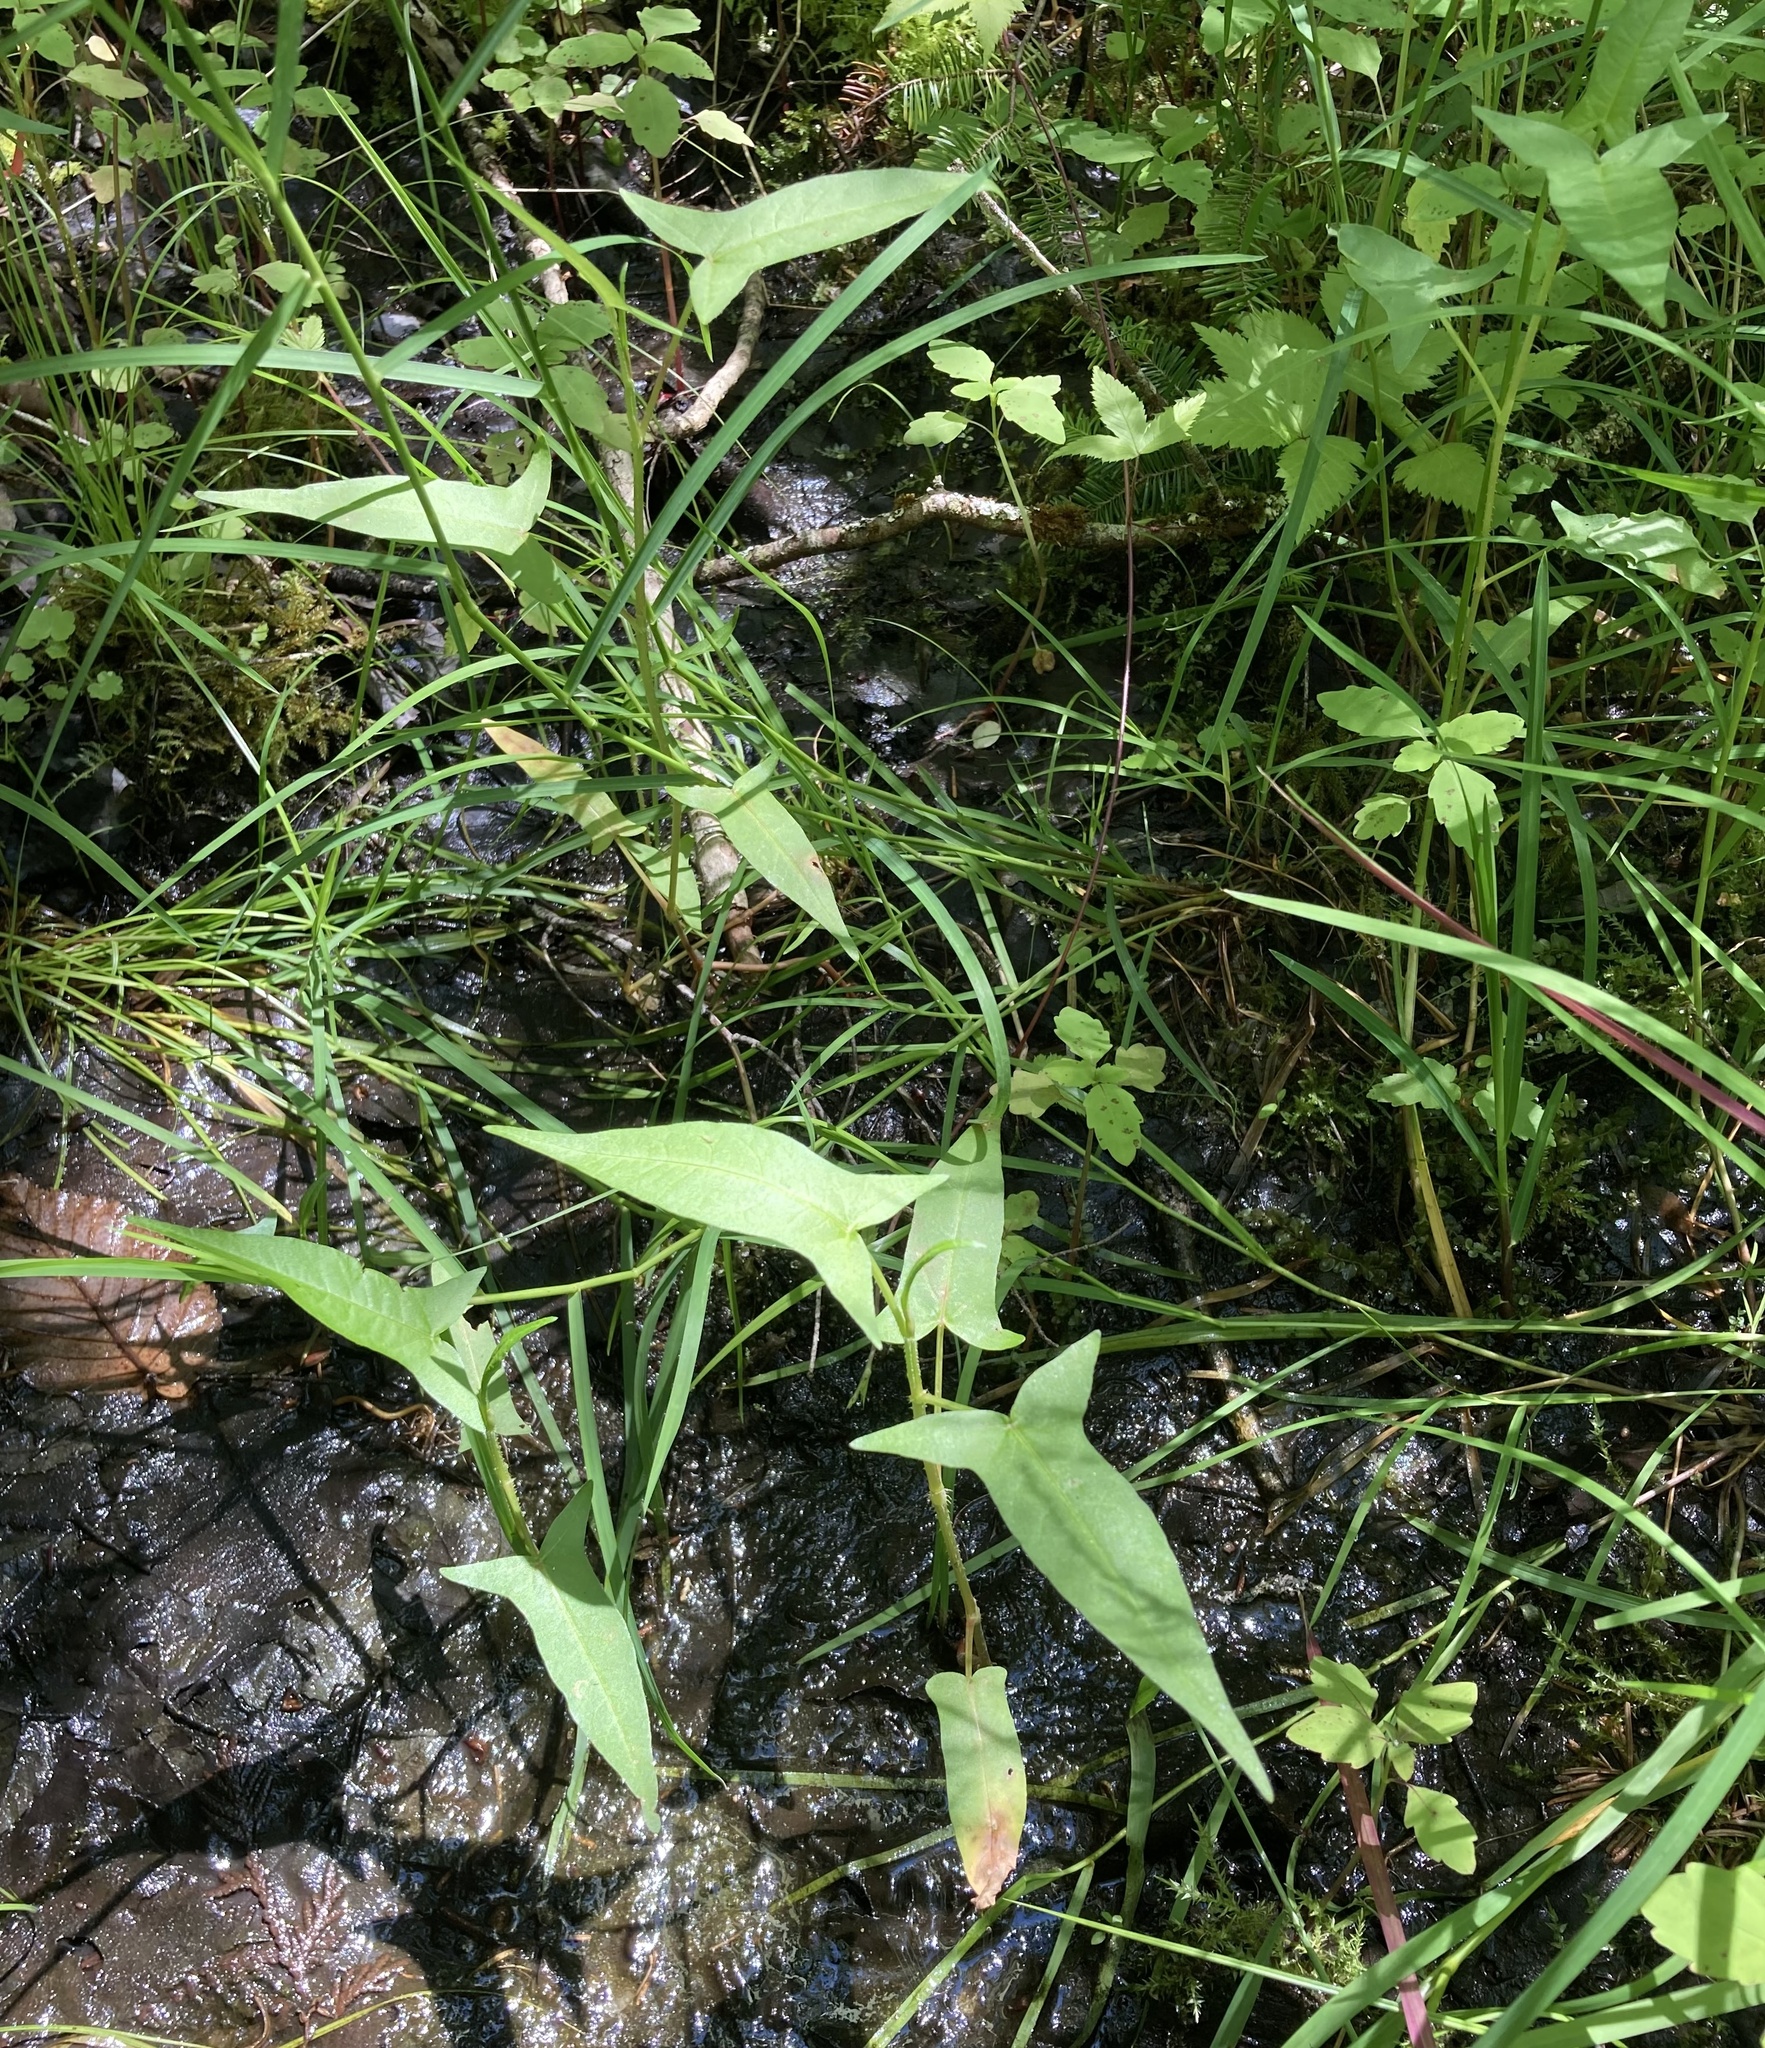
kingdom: Plantae
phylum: Tracheophyta
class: Magnoliopsida
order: Caryophyllales
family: Polygonaceae
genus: Persicaria
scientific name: Persicaria arifolia
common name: Halberd-leaved tear-thumb
